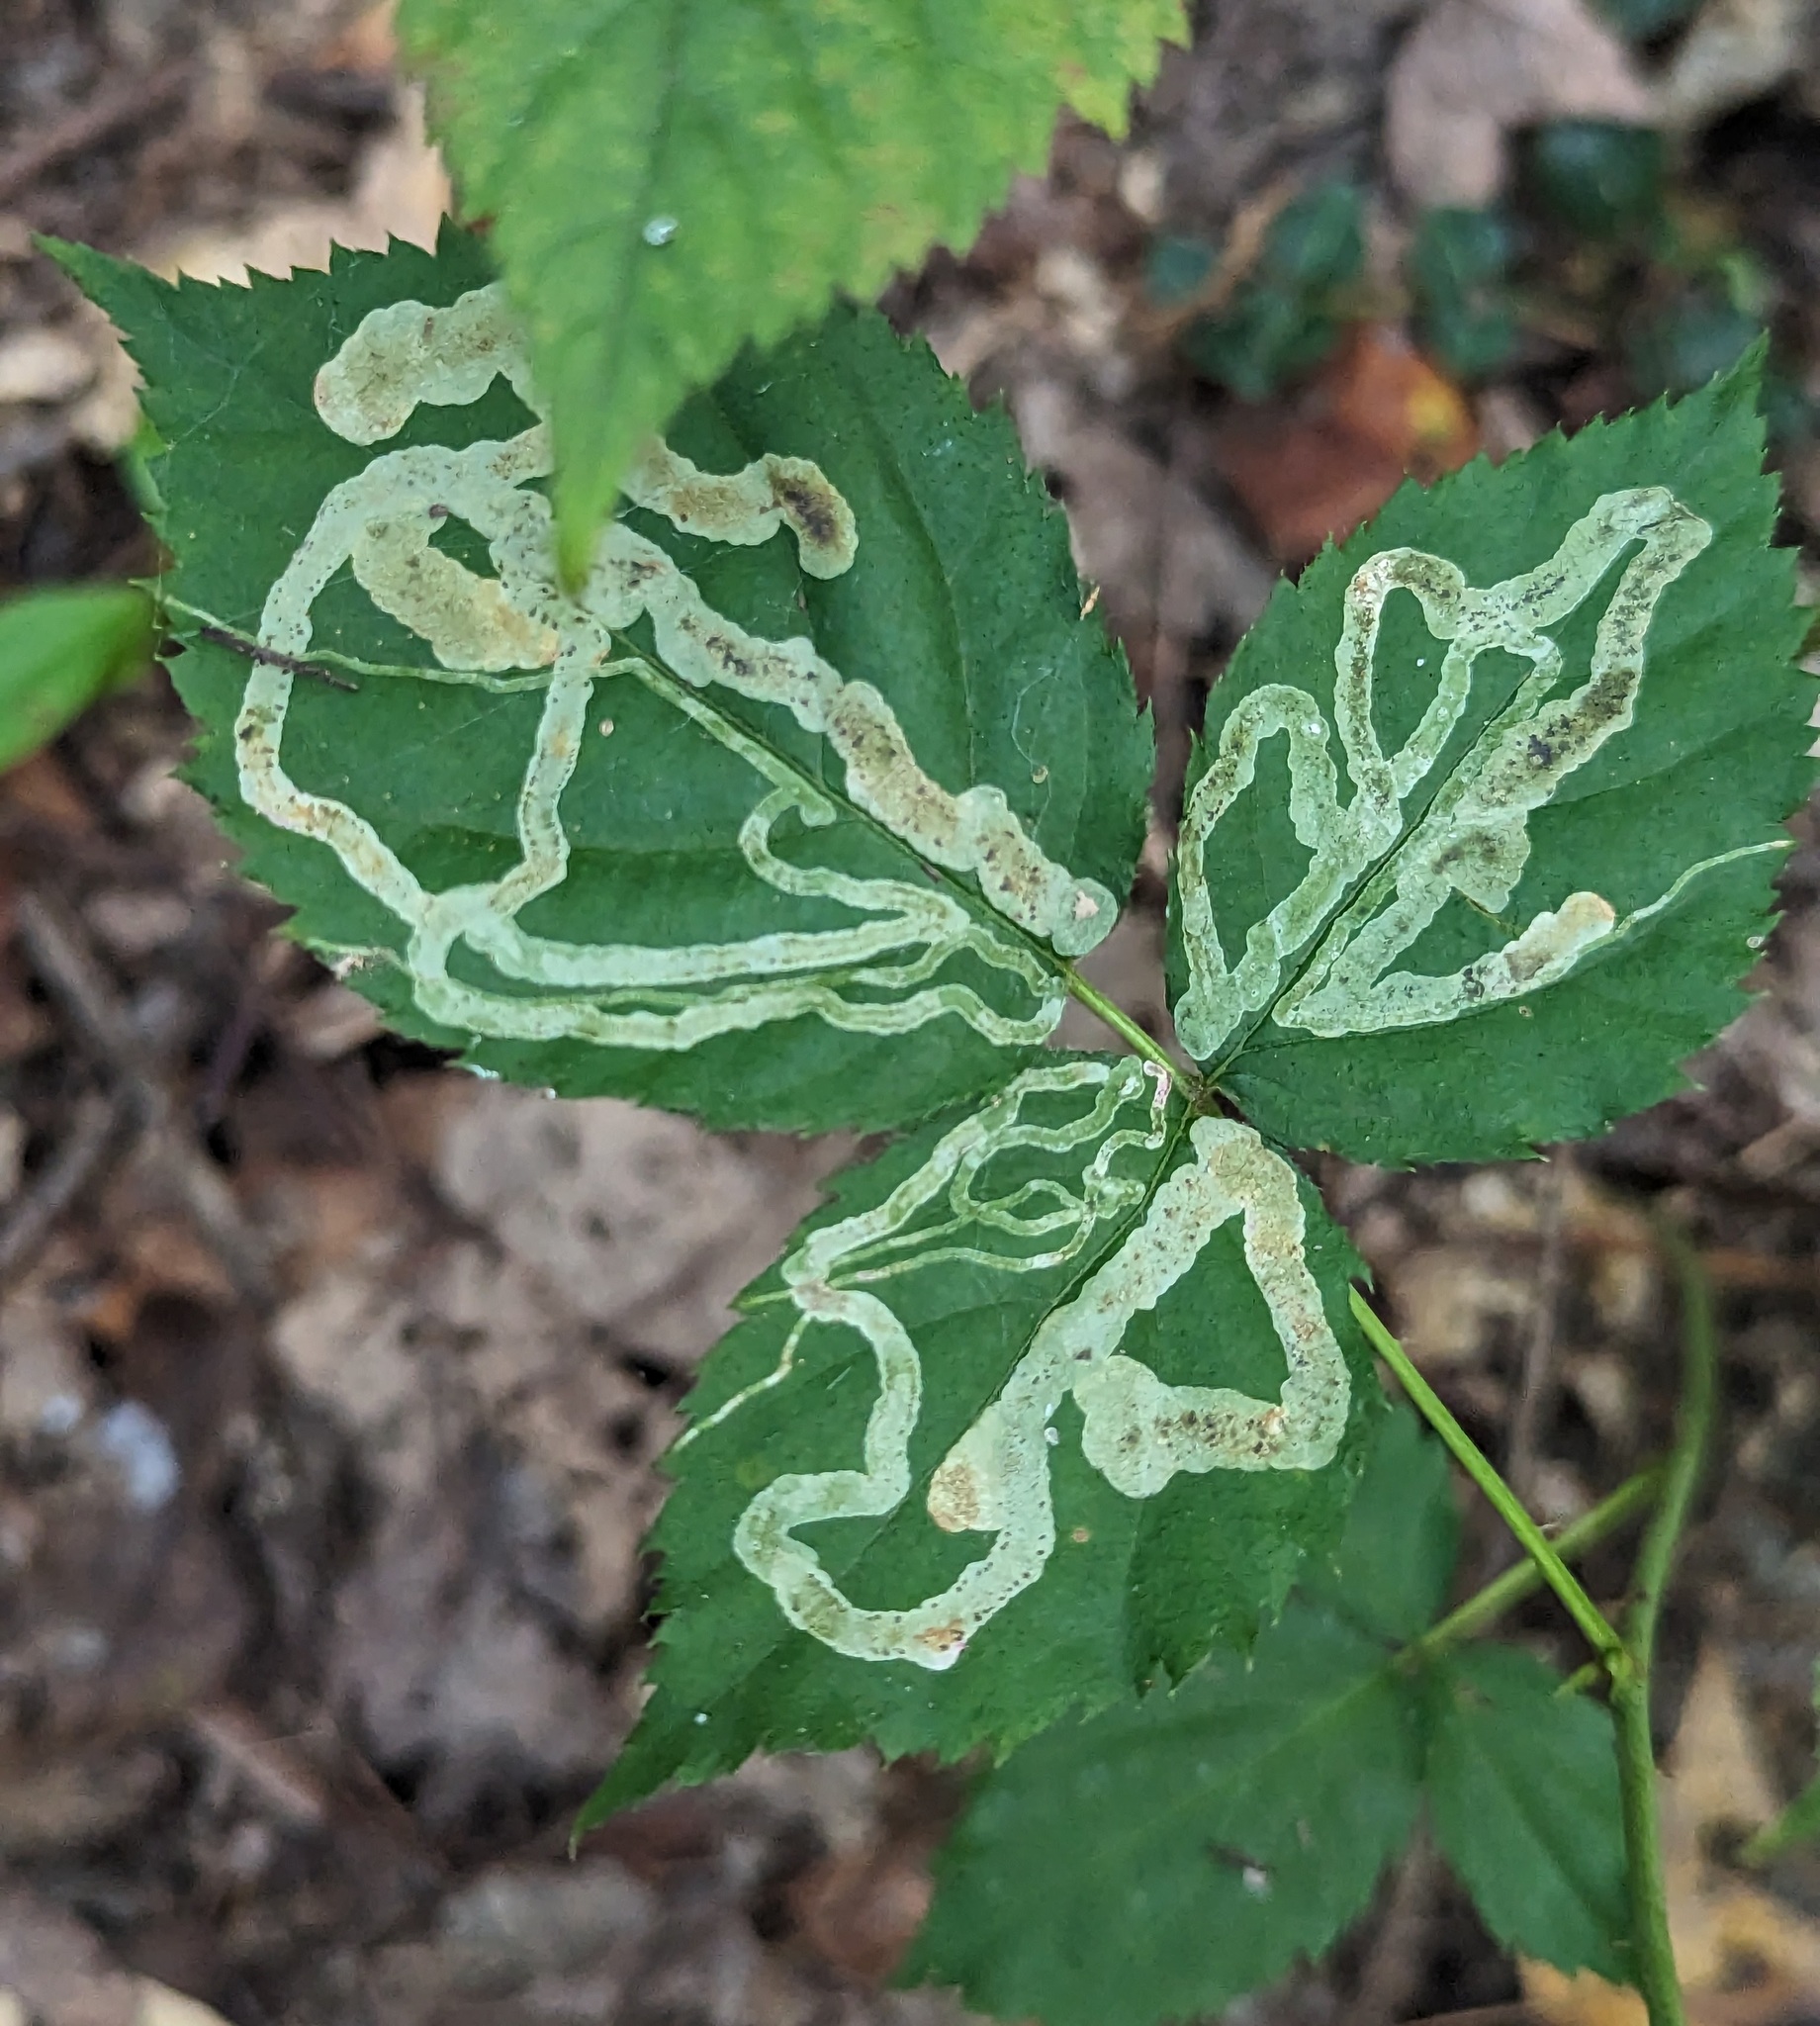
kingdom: Animalia
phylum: Arthropoda
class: Insecta
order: Diptera
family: Agromyzidae
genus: Agromyza
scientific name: Agromyza vockerothi
